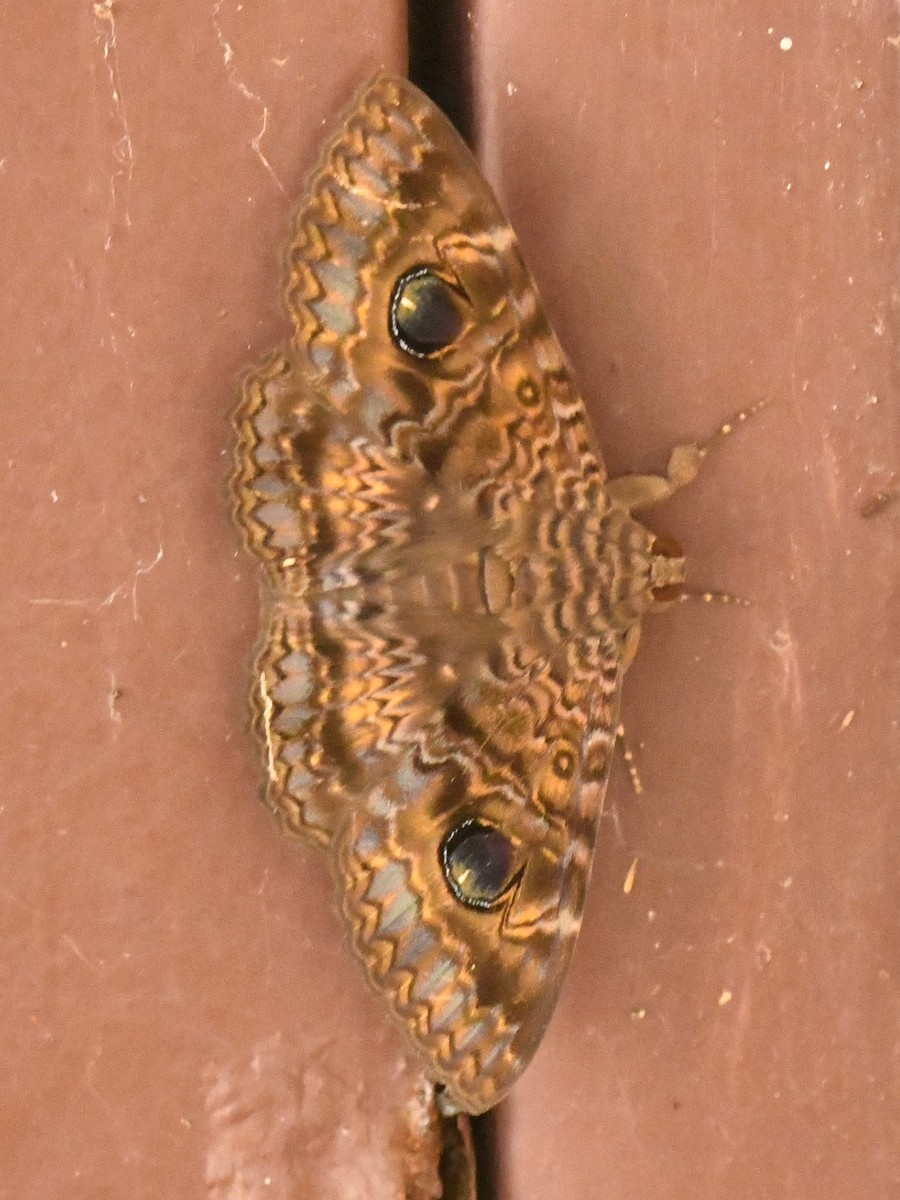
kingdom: Animalia
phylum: Arthropoda
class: Insecta
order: Lepidoptera
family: Erebidae
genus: Speiredonia
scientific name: Speiredonia obscura
